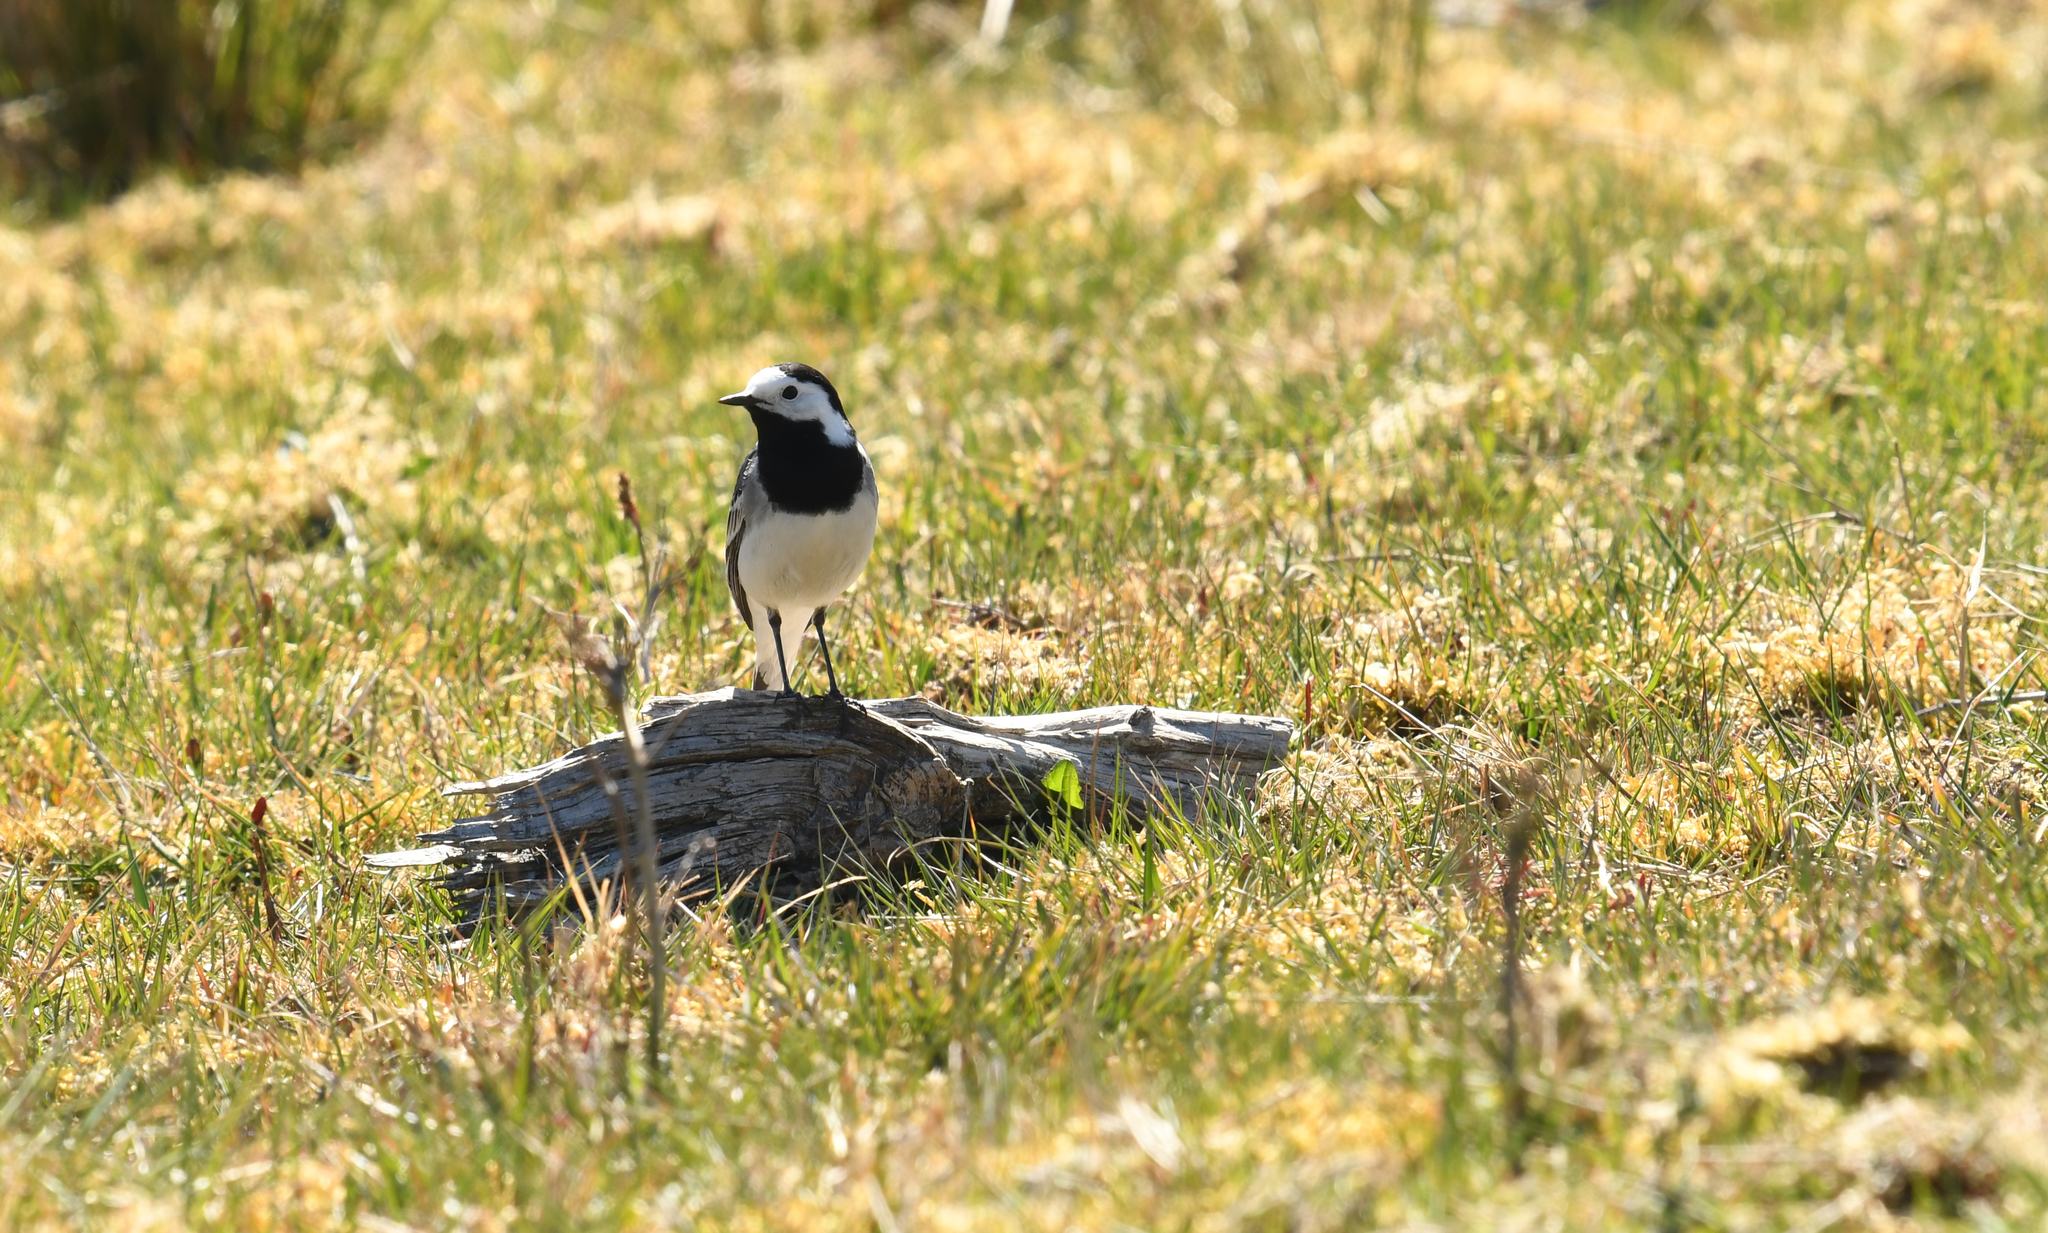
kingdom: Animalia
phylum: Chordata
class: Aves
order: Passeriformes
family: Motacillidae
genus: Motacilla
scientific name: Motacilla alba
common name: White wagtail
